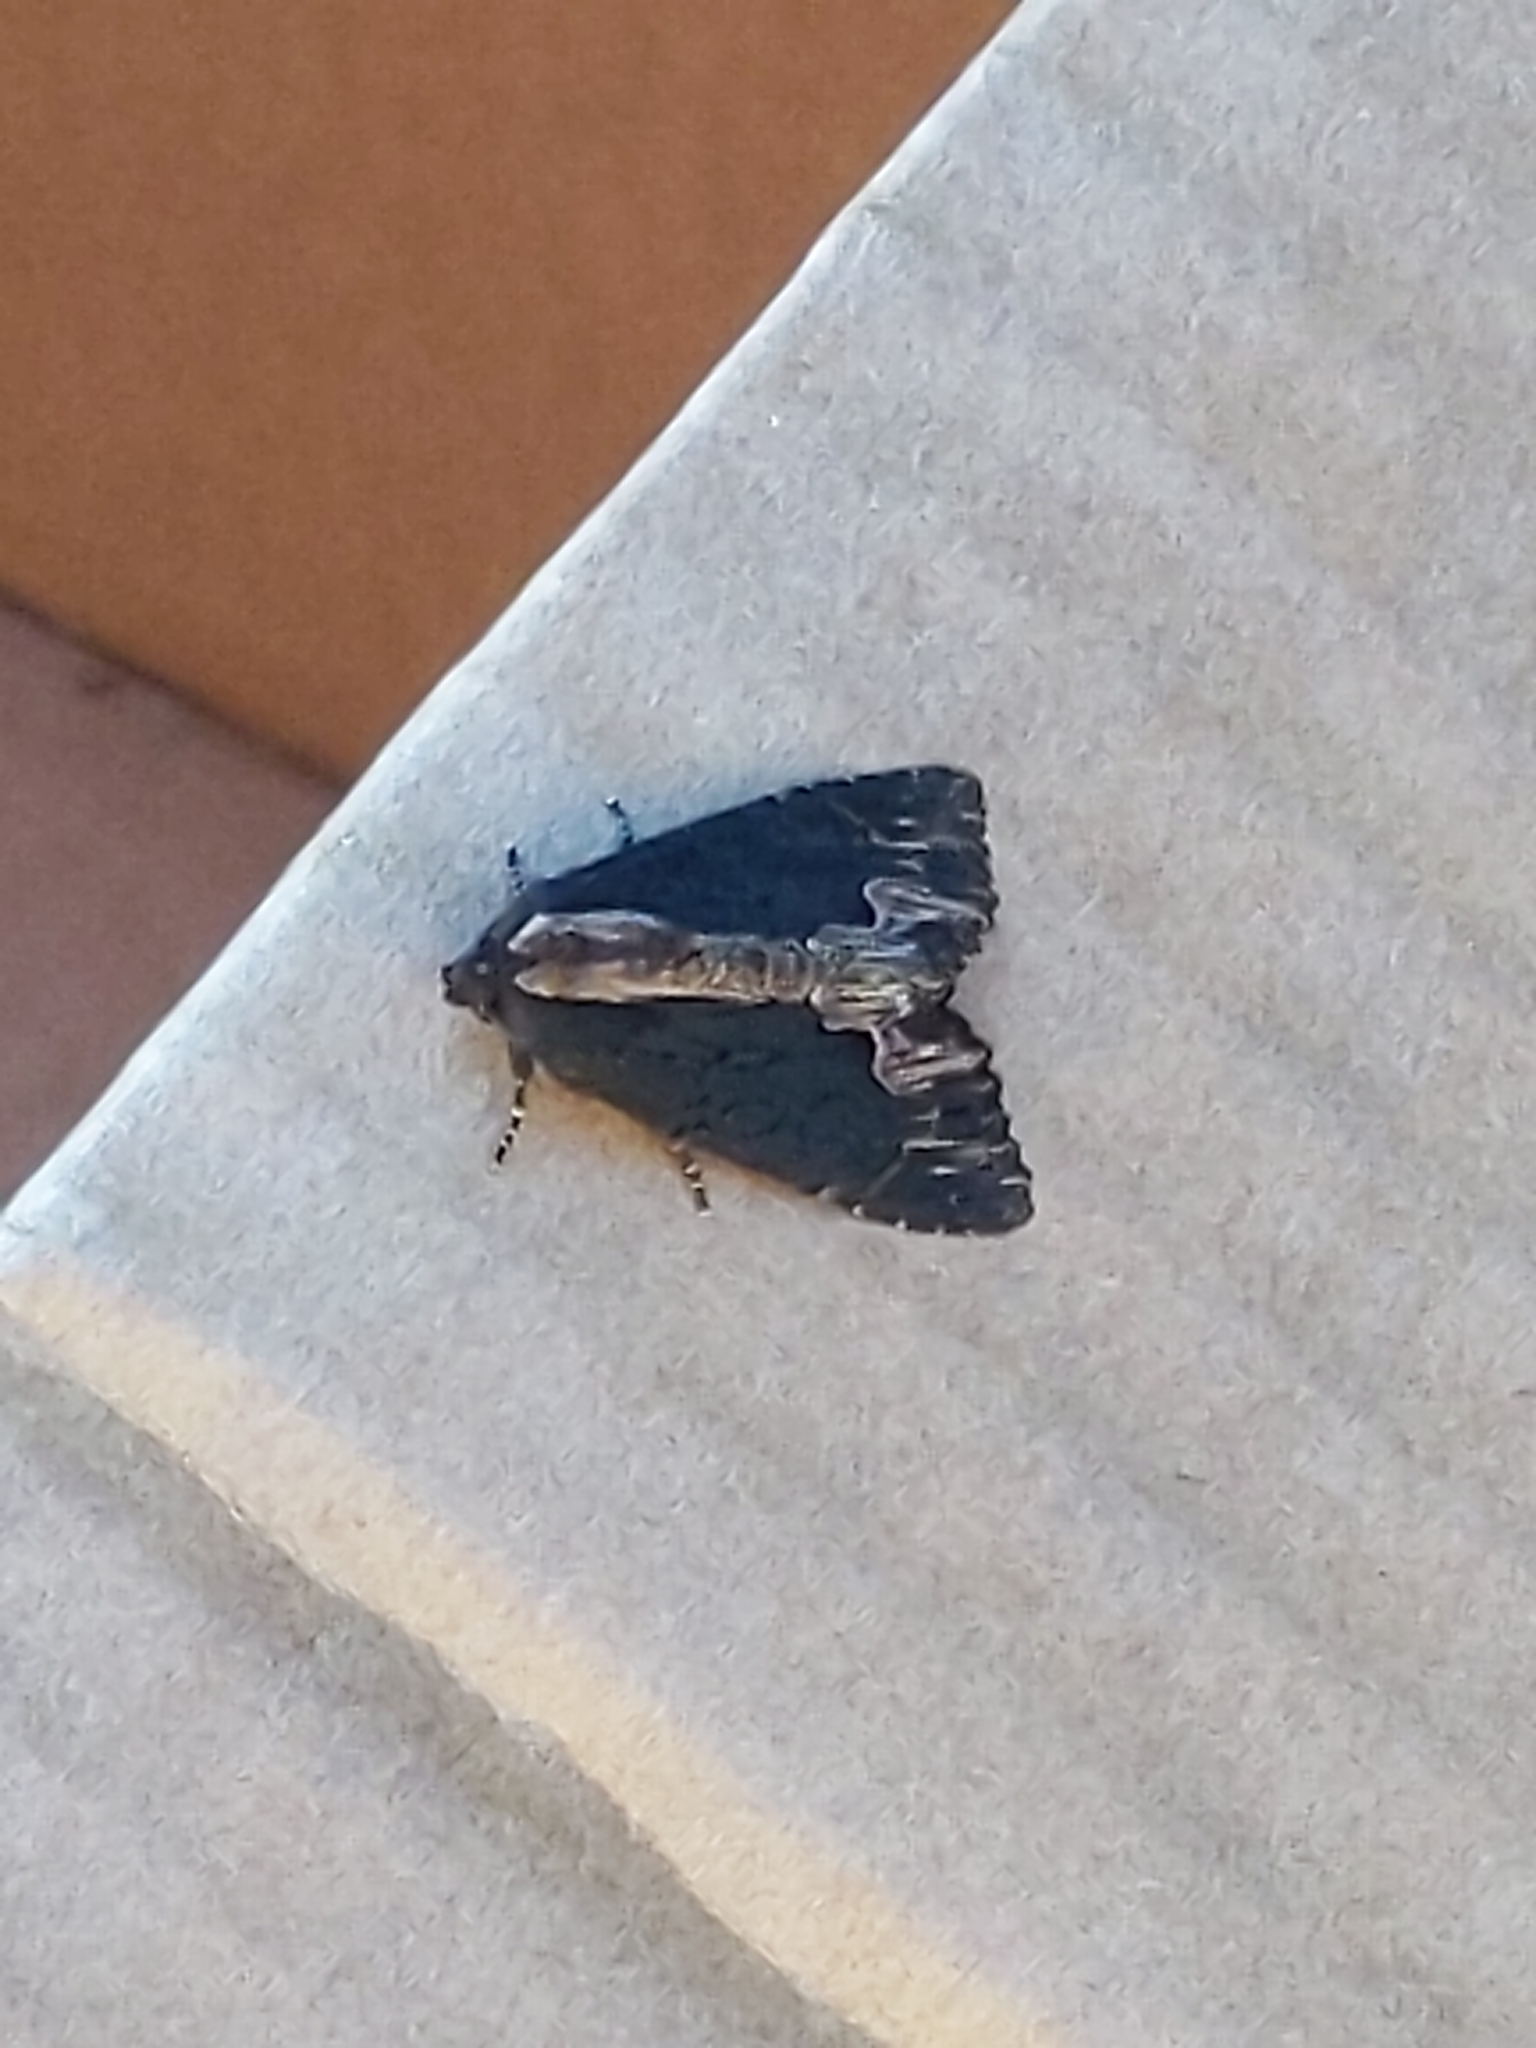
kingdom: Animalia
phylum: Arthropoda
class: Insecta
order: Lepidoptera
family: Noctuidae
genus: Dypterygia
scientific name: Dypterygia scabriuscula
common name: Bird's wing
